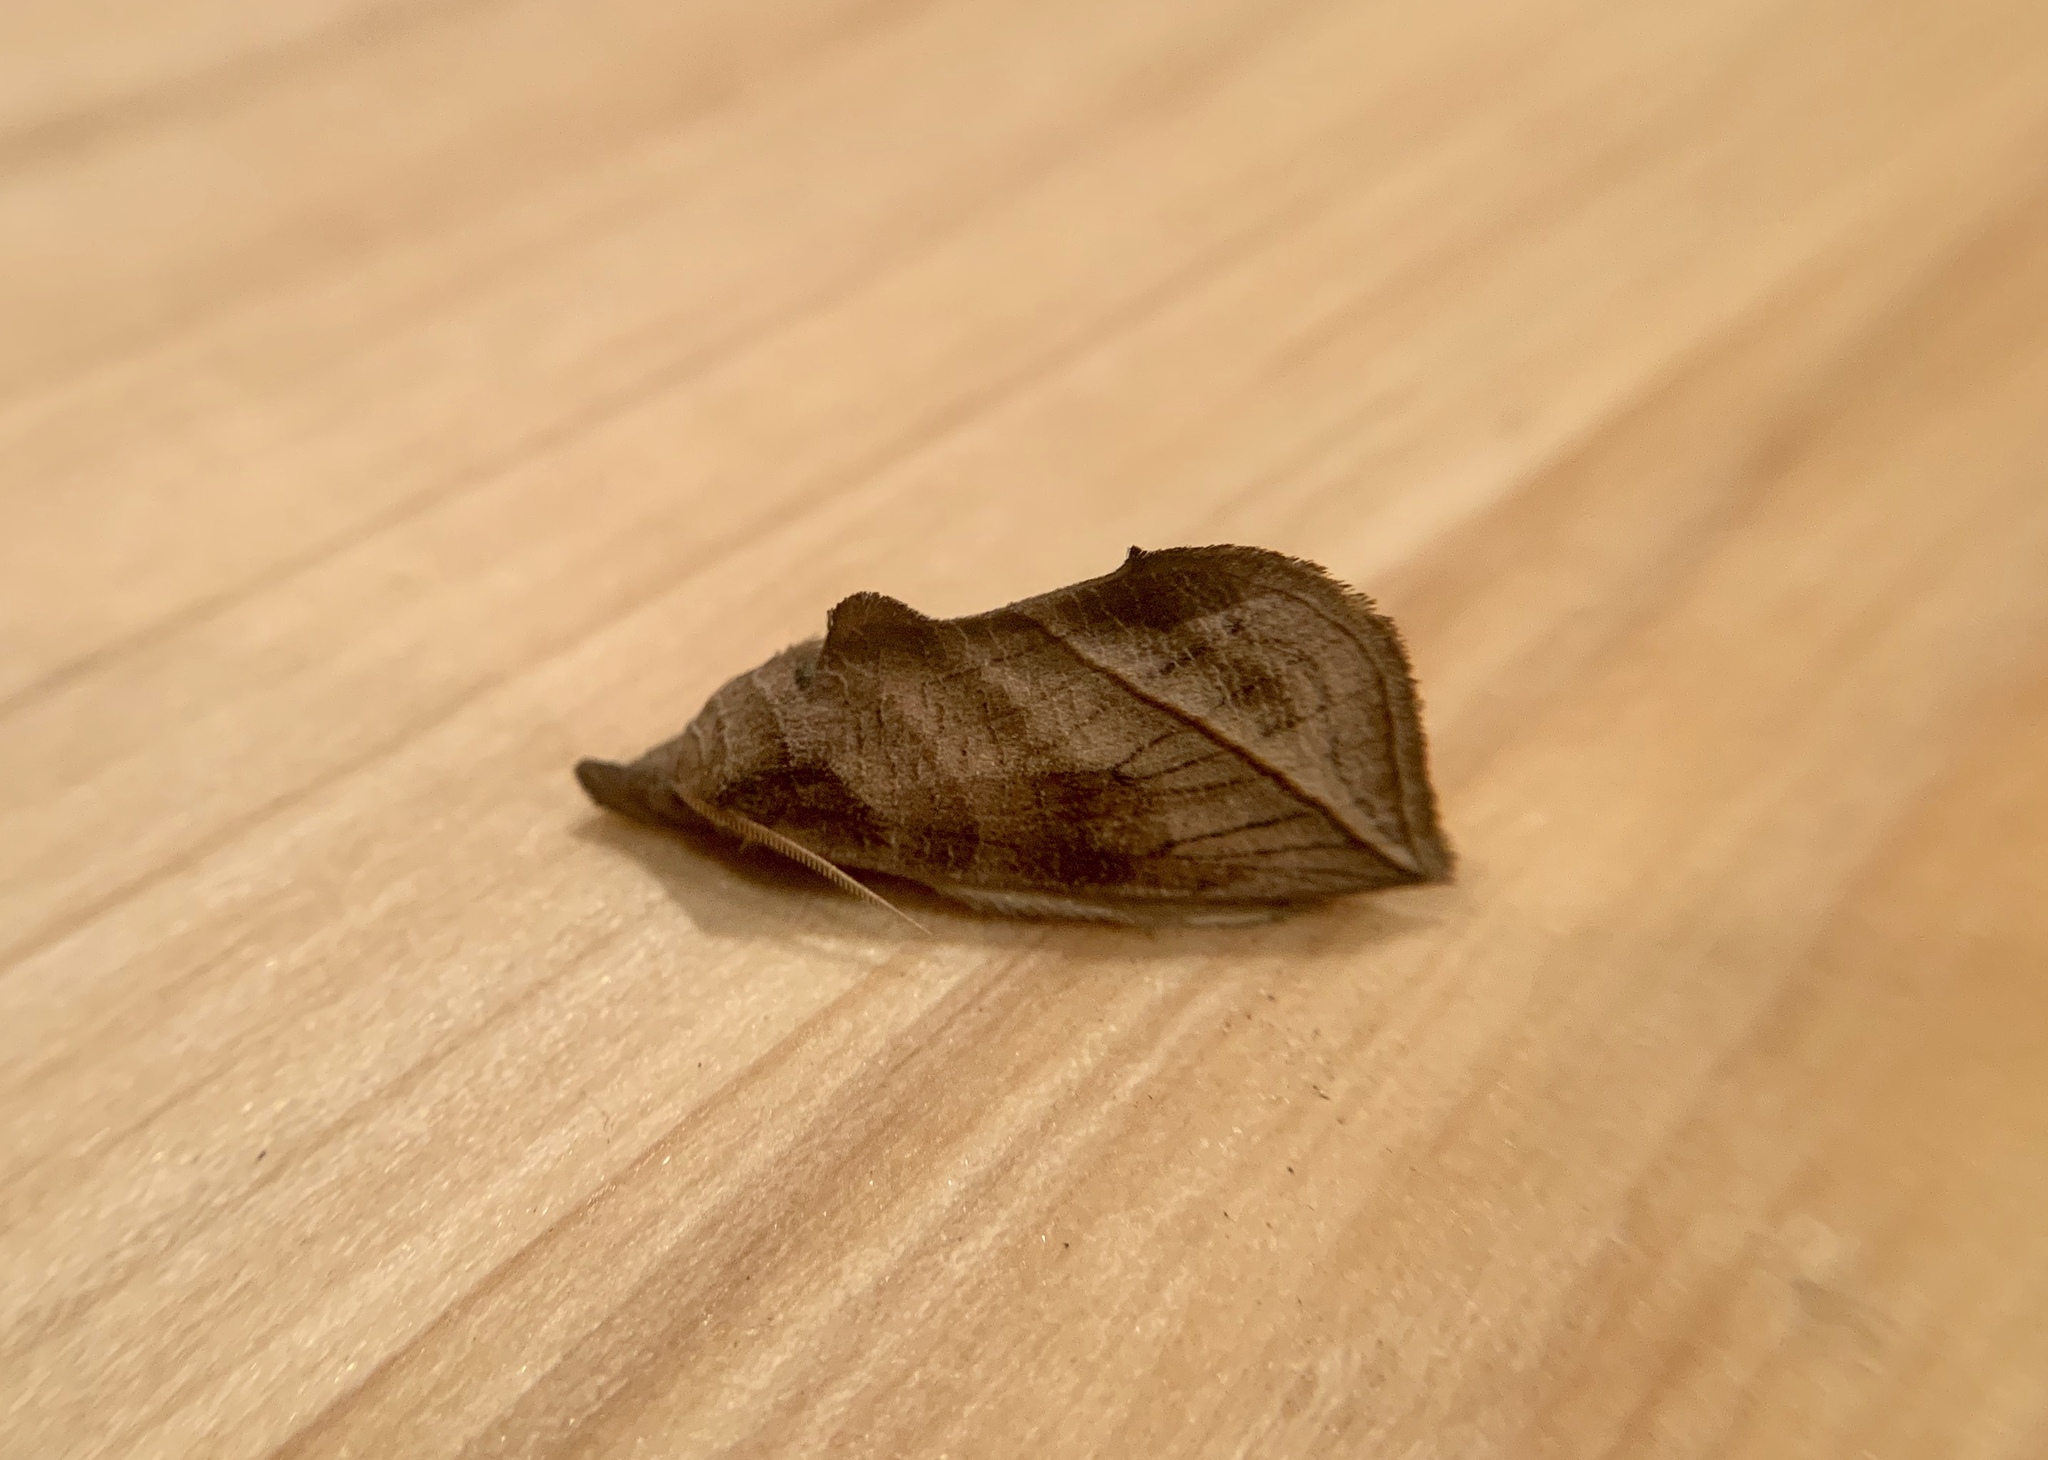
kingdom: Animalia
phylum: Arthropoda
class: Insecta
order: Lepidoptera
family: Erebidae
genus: Calyptra
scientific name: Calyptra canadensis
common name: Canadian owlet
